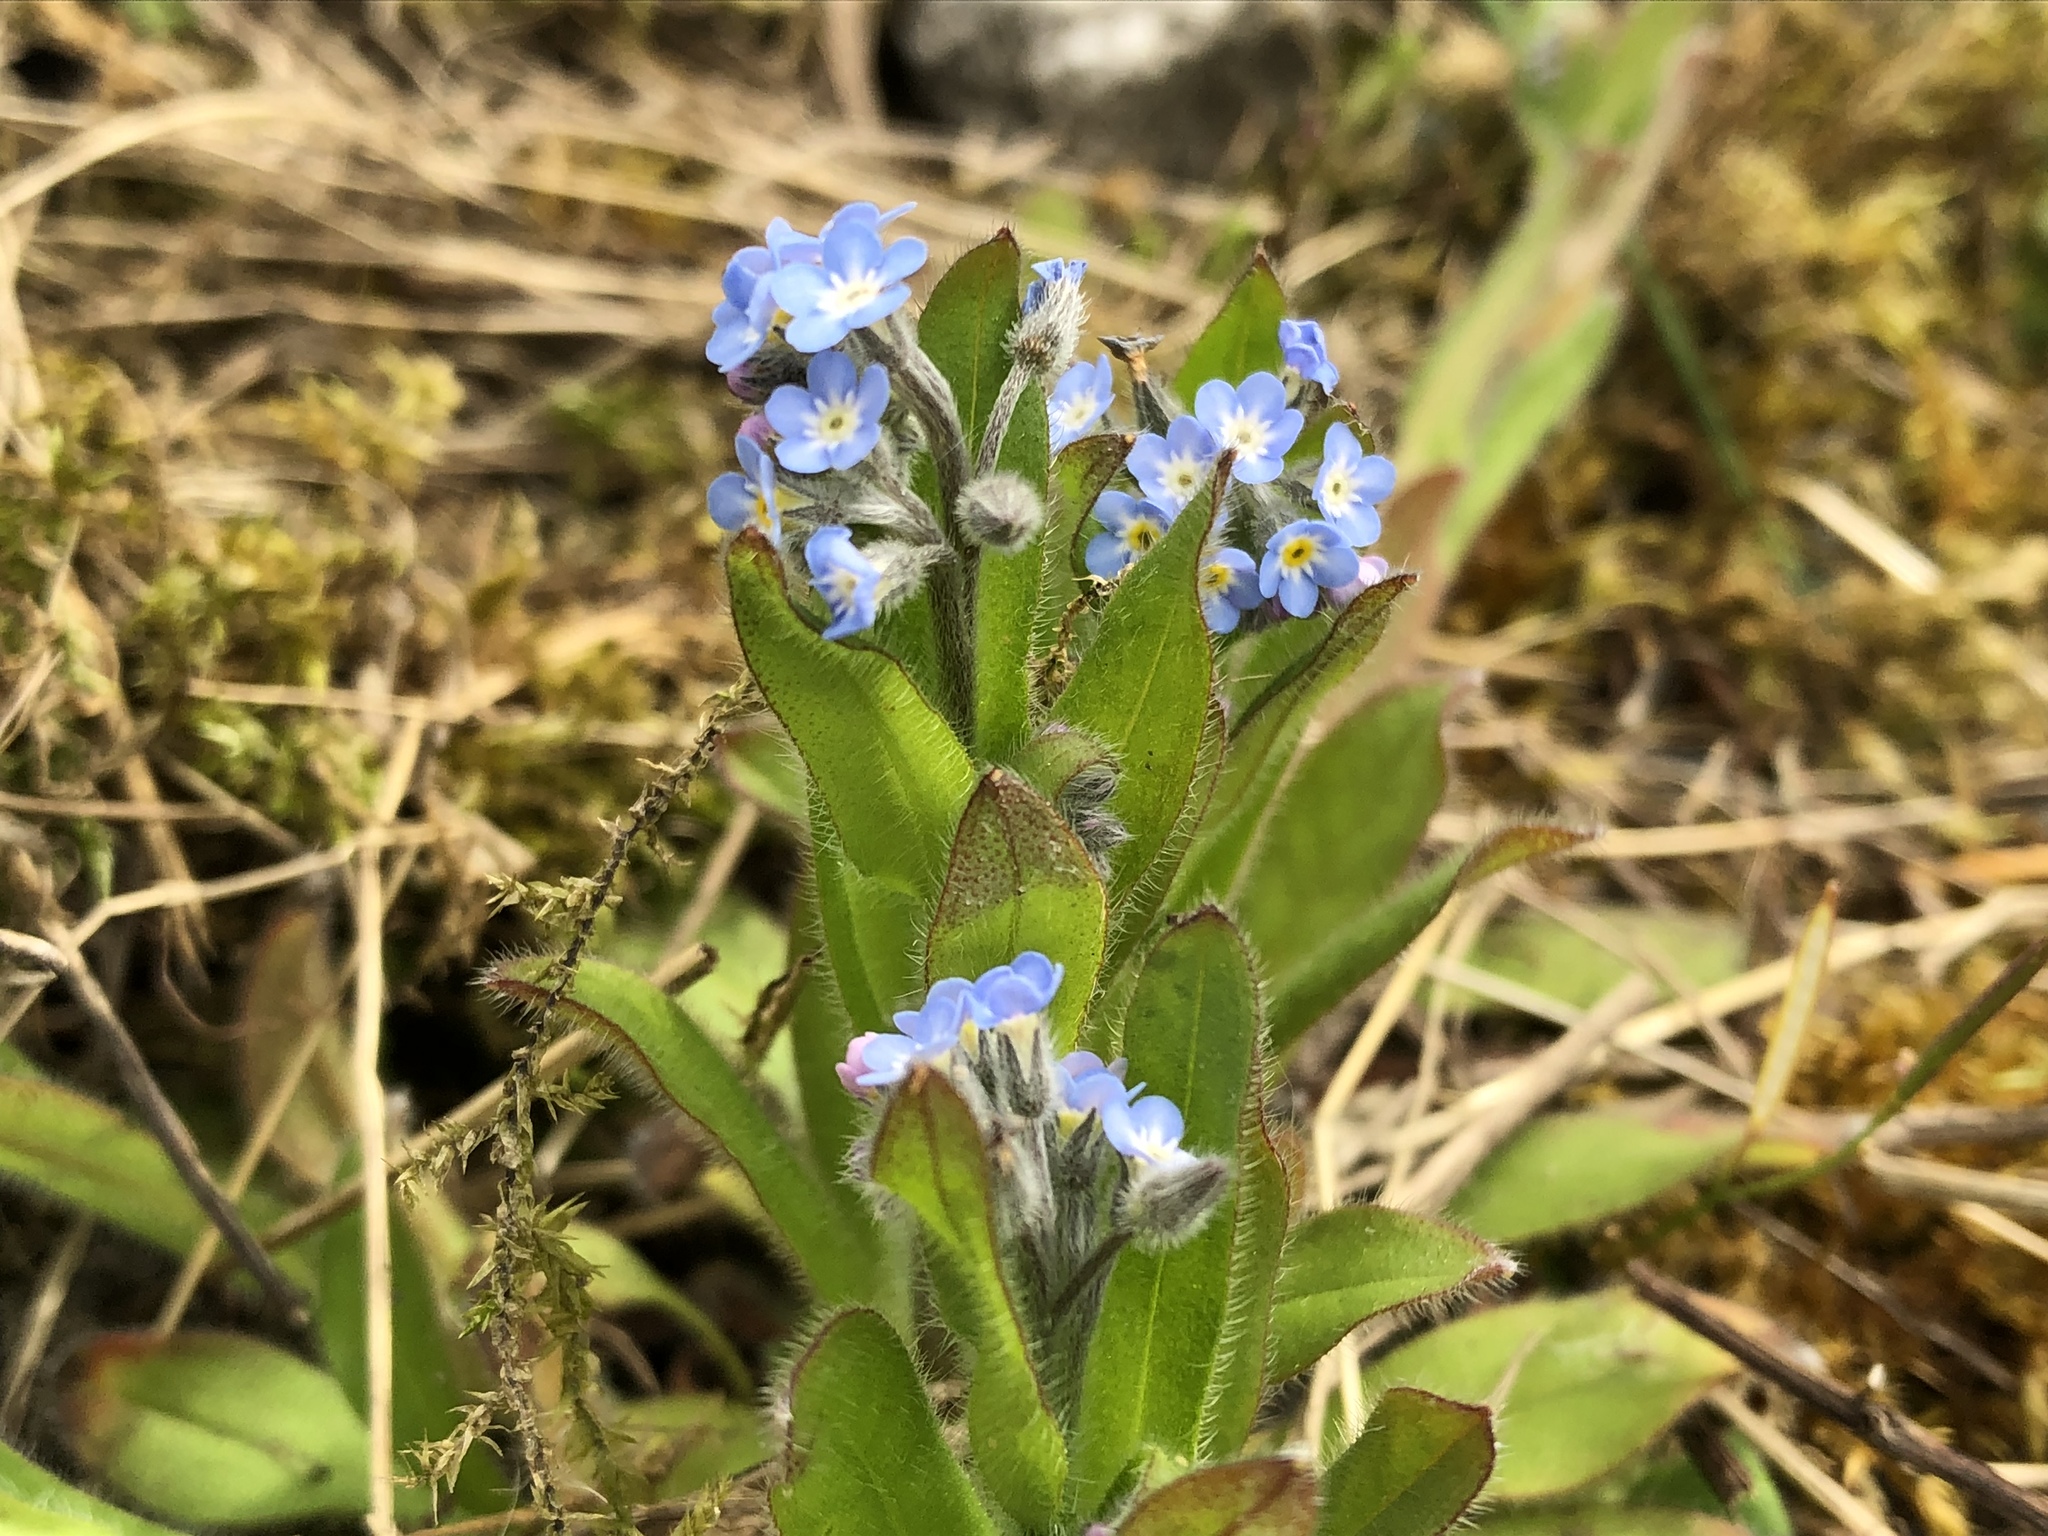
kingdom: Plantae
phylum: Tracheophyta
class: Magnoliopsida
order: Boraginales
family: Boraginaceae
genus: Myosotis
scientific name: Myosotis arvensis
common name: Field forget-me-not
